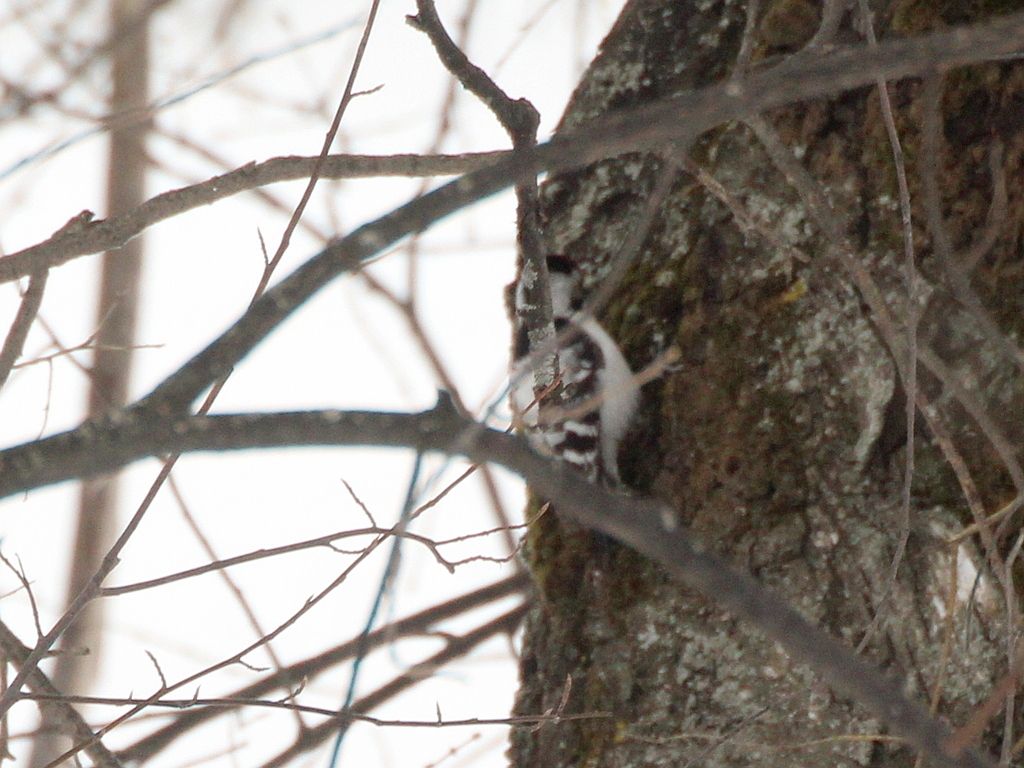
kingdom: Animalia
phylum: Chordata
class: Aves
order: Piciformes
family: Picidae
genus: Dryobates
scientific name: Dryobates minor
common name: Lesser spotted woodpecker
